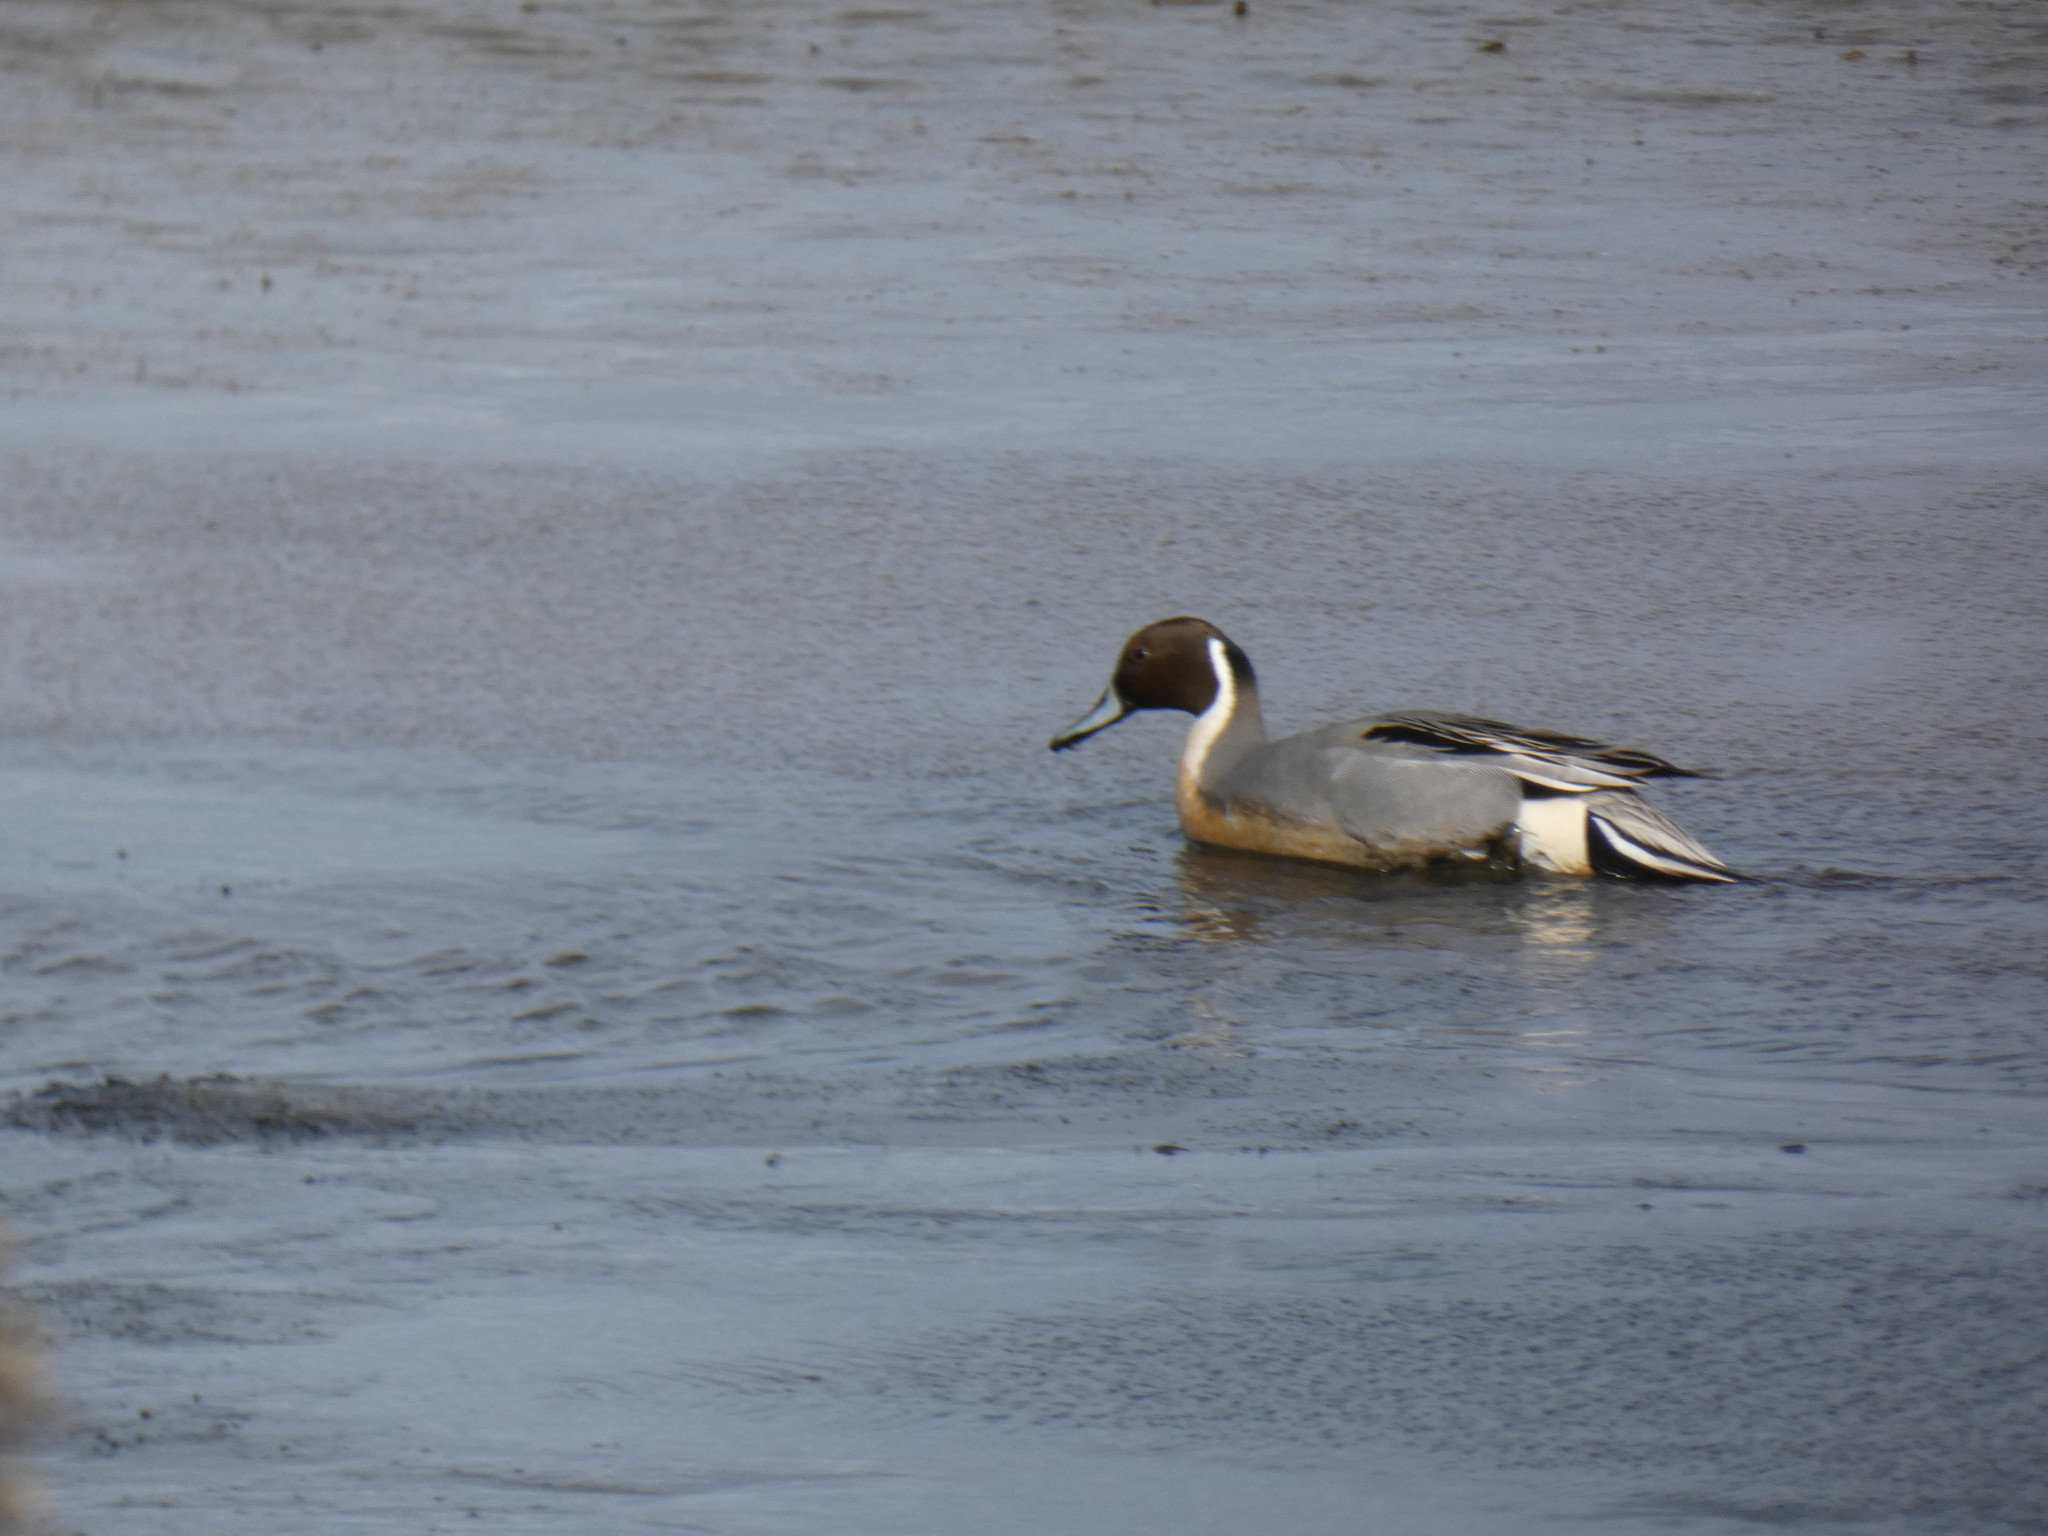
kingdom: Animalia
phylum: Chordata
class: Aves
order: Anseriformes
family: Anatidae
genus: Anas
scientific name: Anas acuta
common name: Northern pintail
